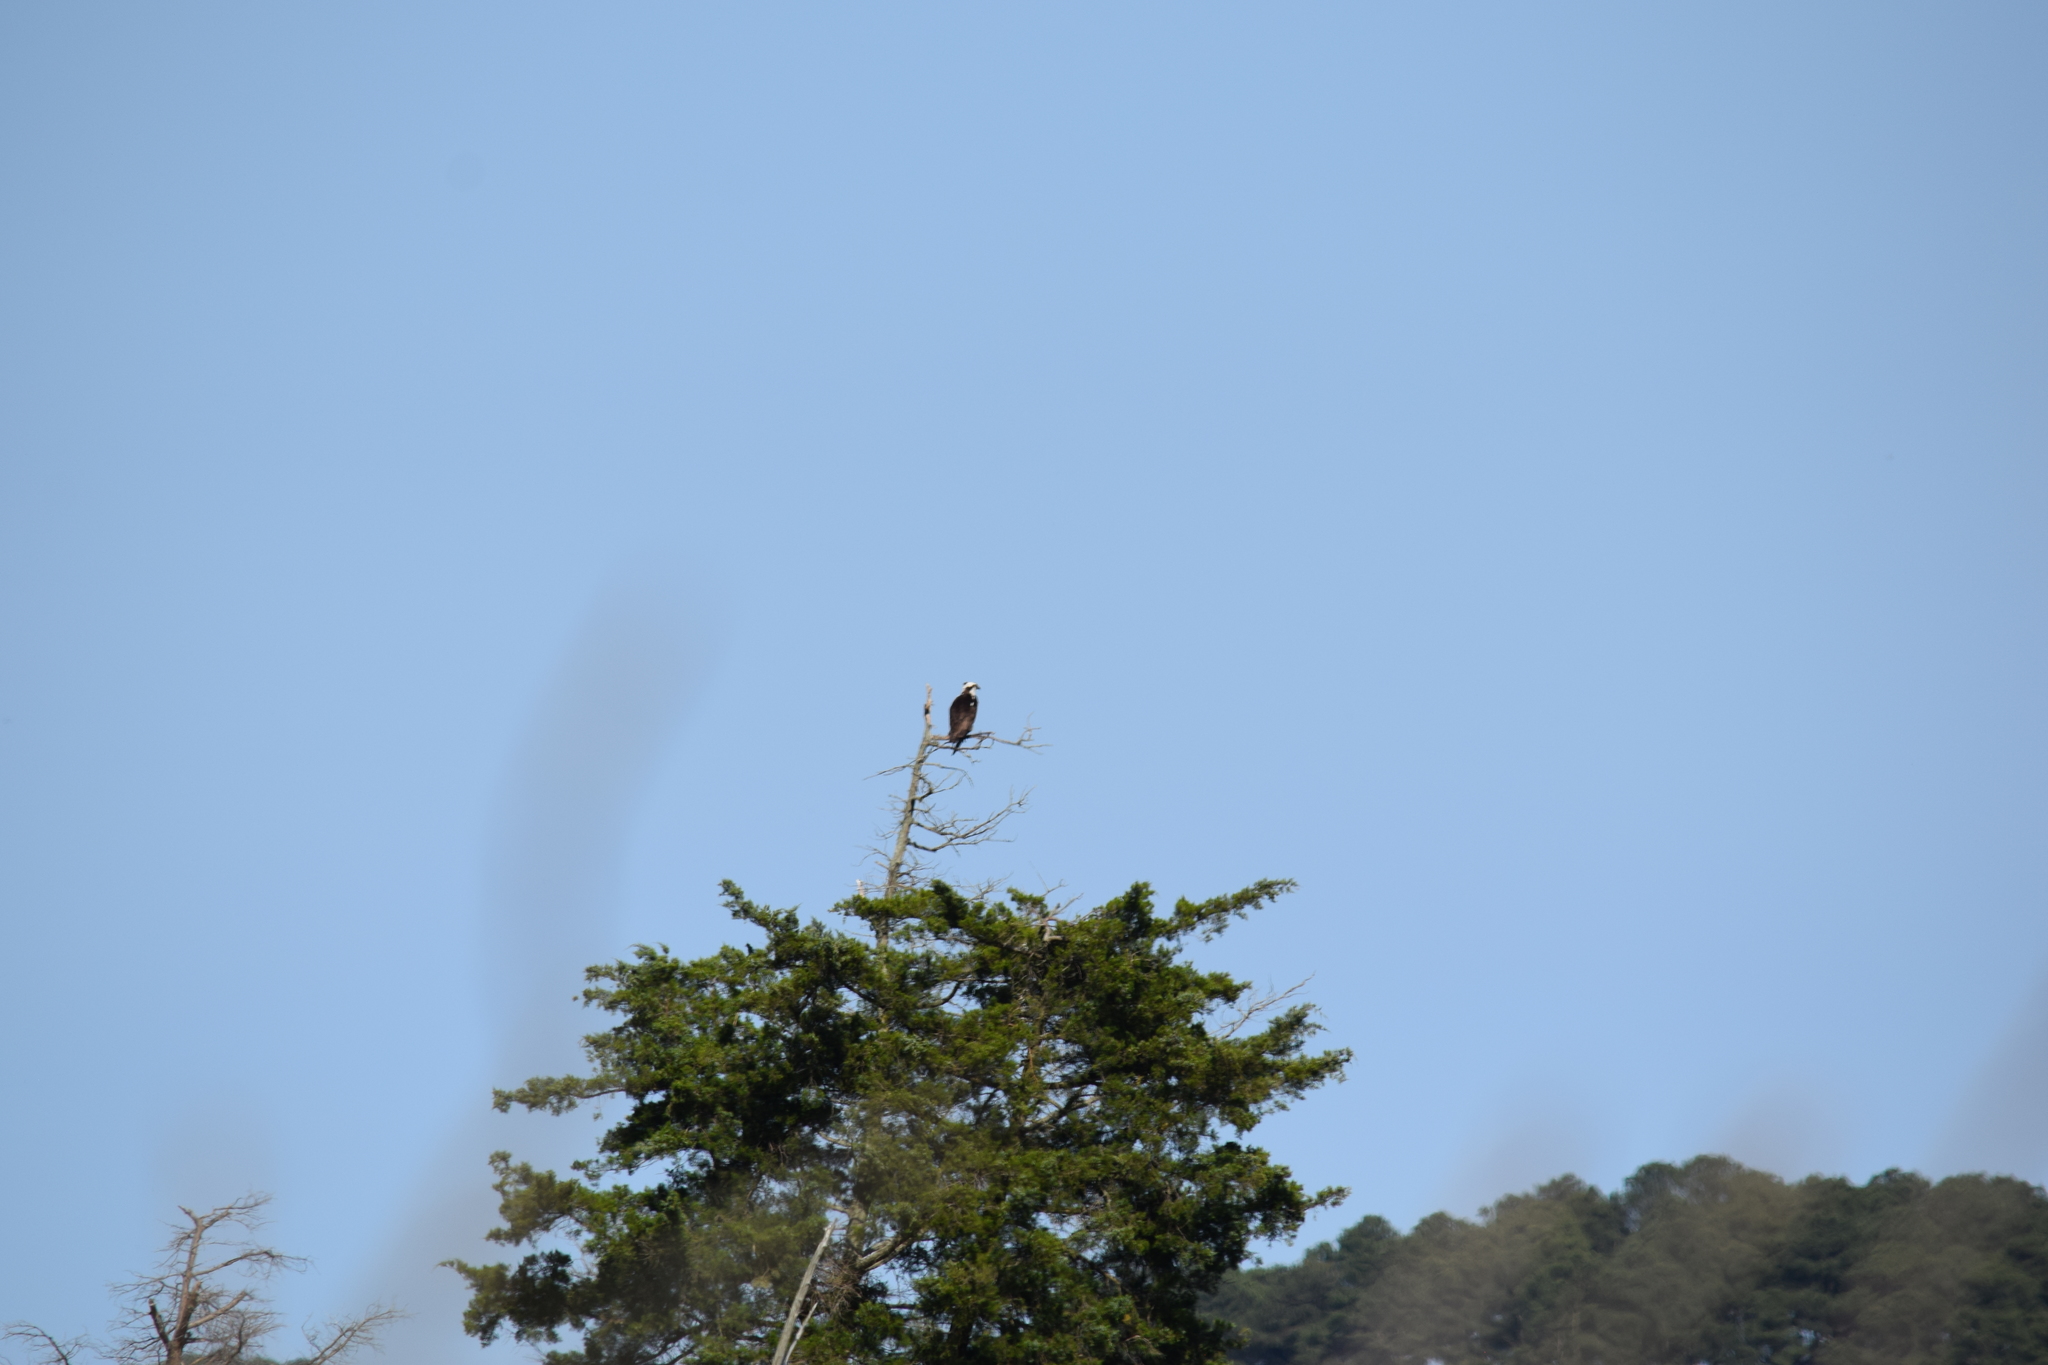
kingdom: Animalia
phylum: Chordata
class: Aves
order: Accipitriformes
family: Pandionidae
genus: Pandion
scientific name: Pandion haliaetus
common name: Osprey
